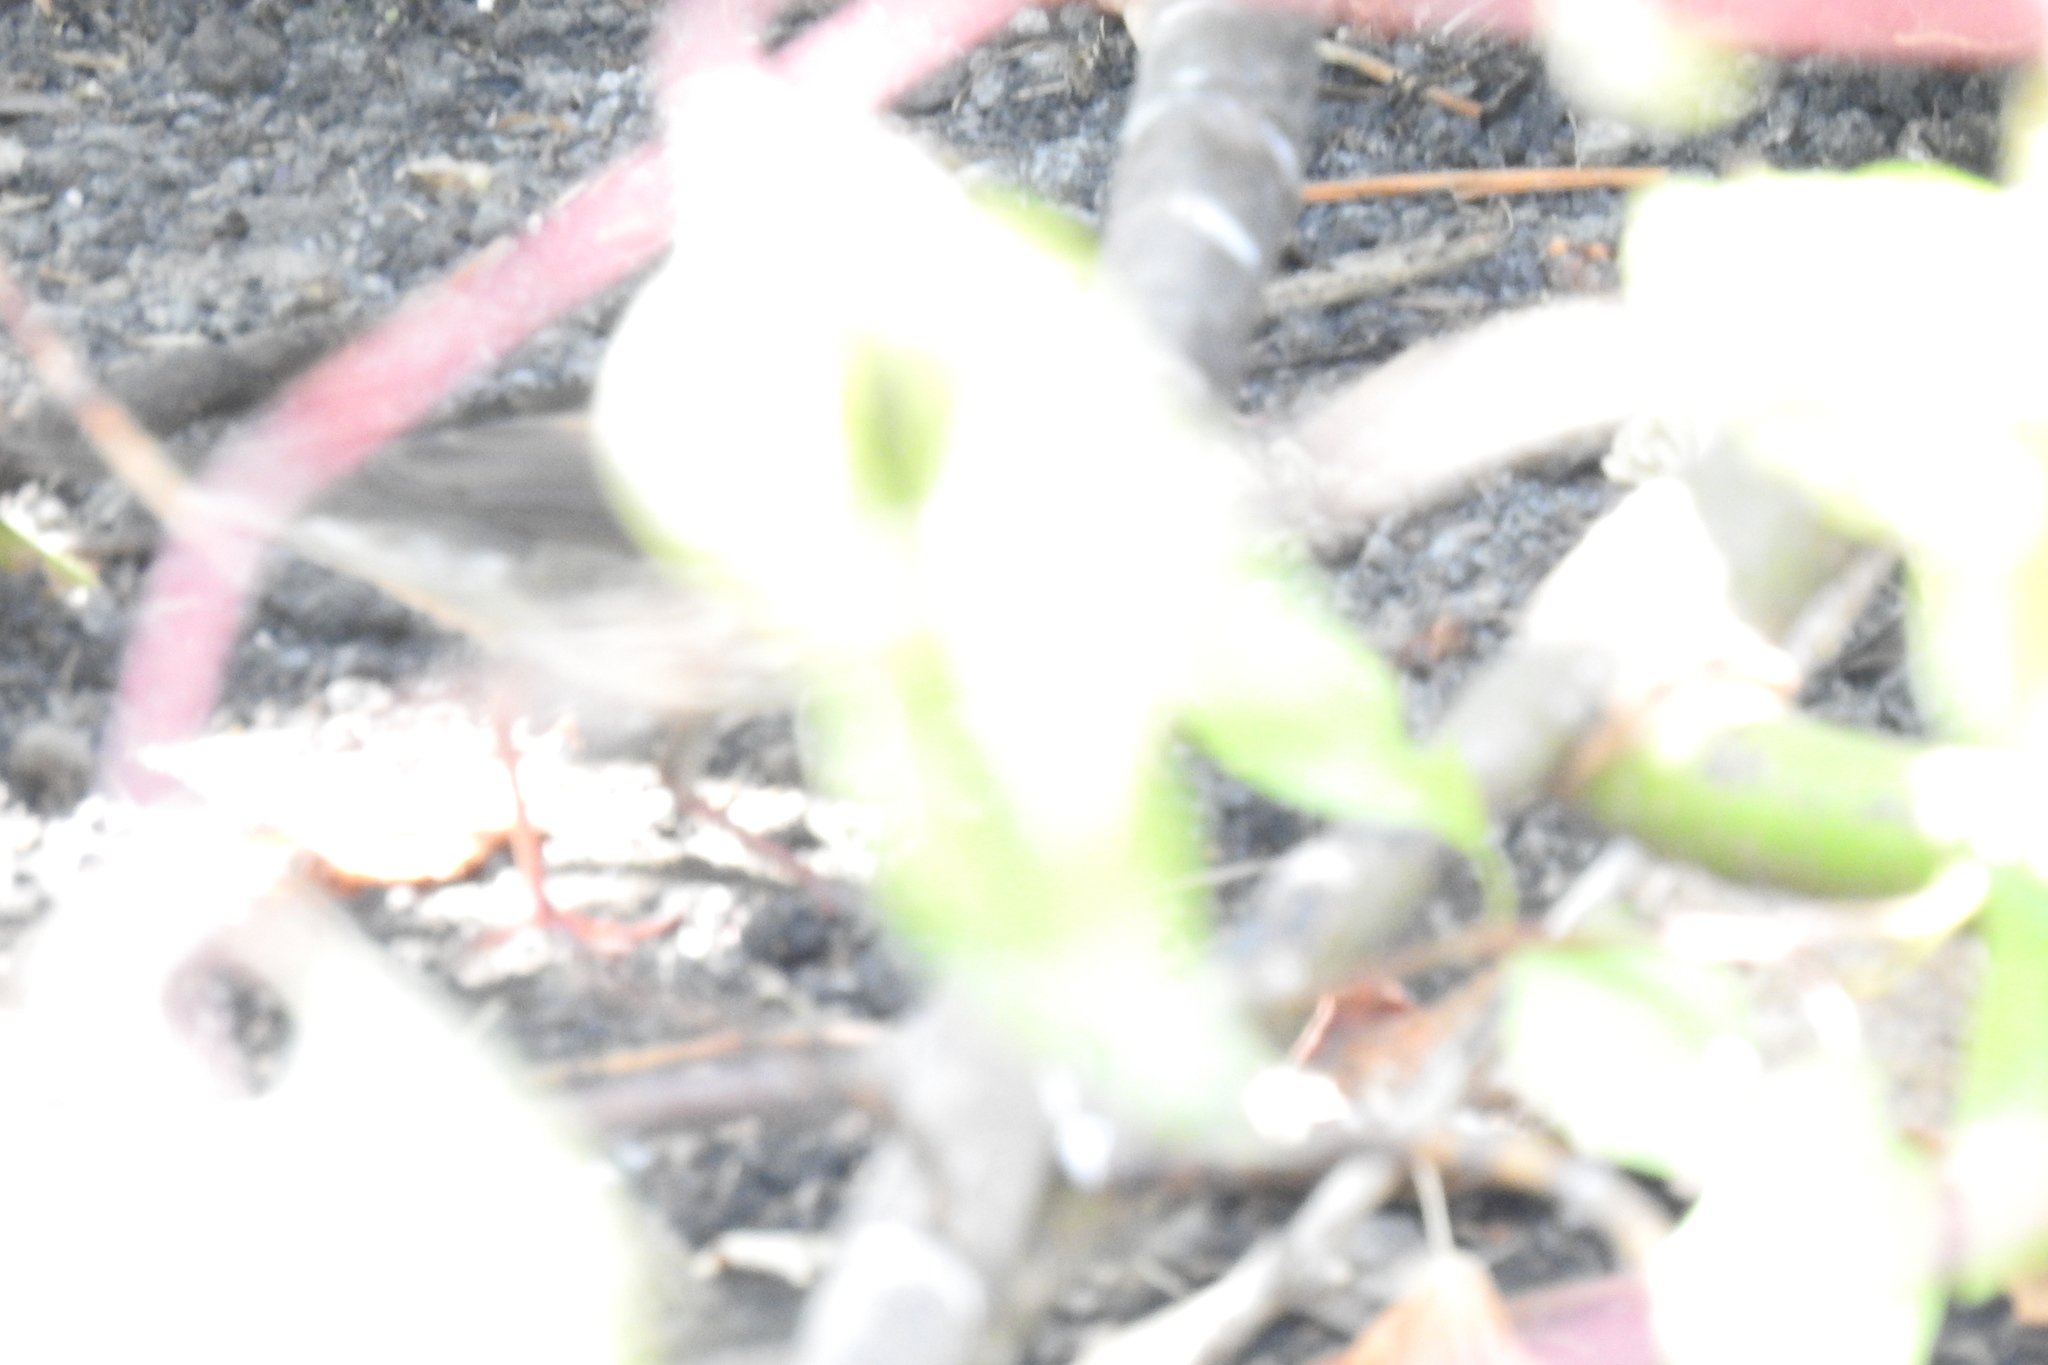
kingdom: Animalia
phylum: Chordata
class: Aves
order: Passeriformes
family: Parulidae
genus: Parkesia
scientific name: Parkesia noveboracensis
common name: Northern waterthrush
